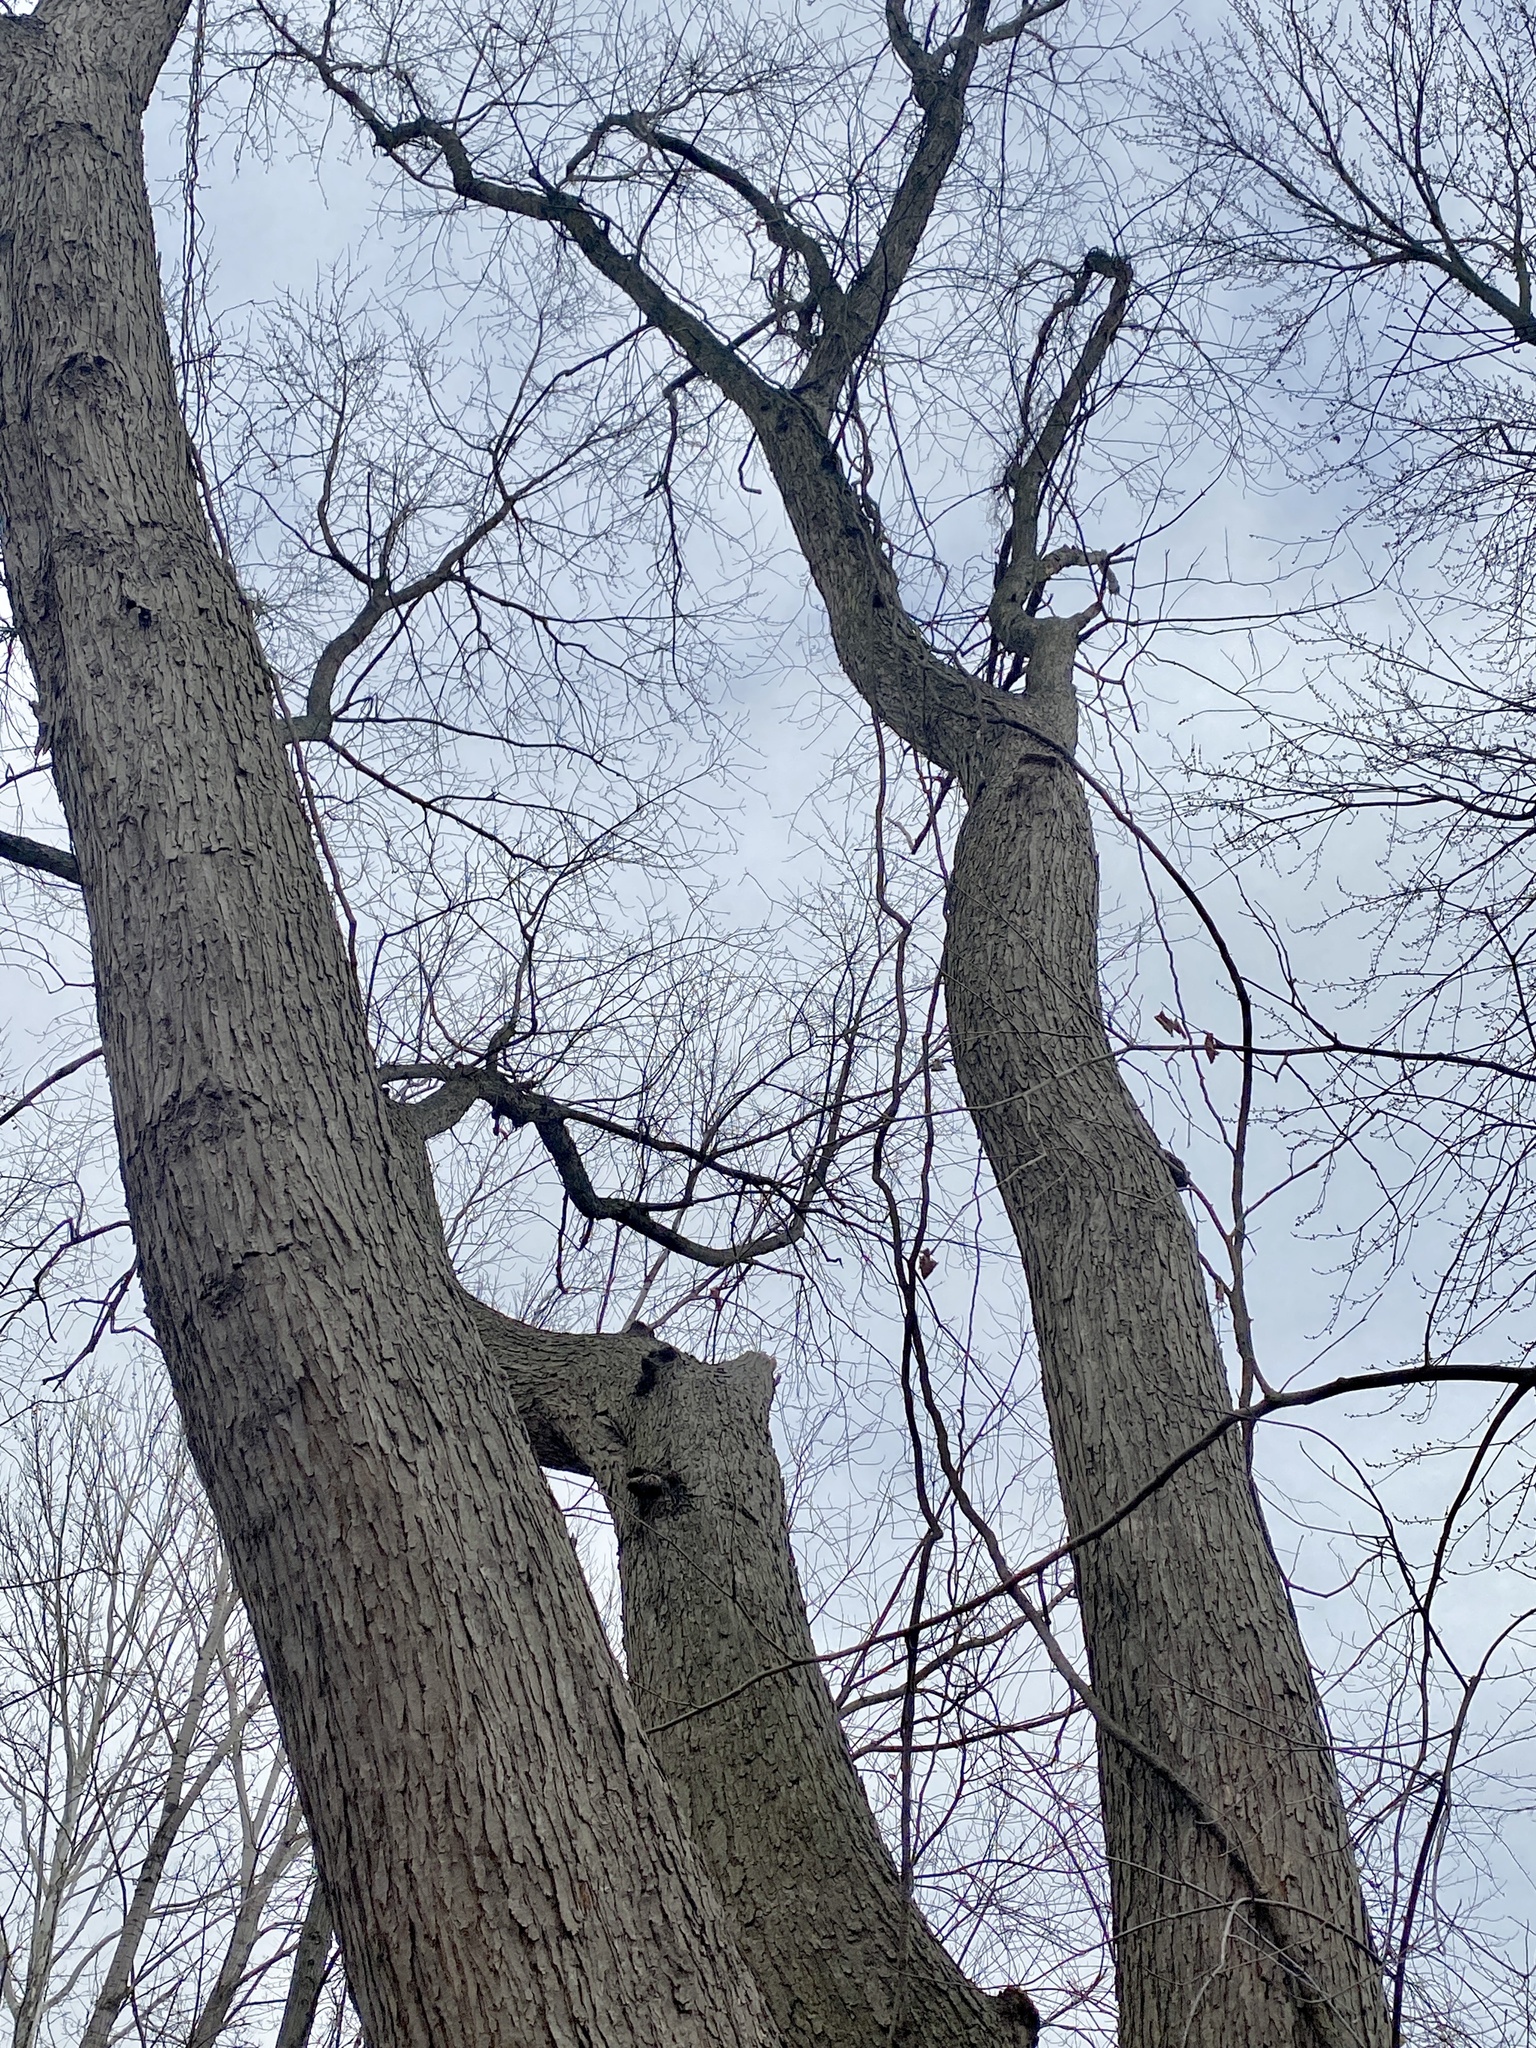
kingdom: Plantae
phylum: Tracheophyta
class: Magnoliopsida
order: Sapindales
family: Sapindaceae
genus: Acer
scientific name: Acer saccharinum
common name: Silver maple
